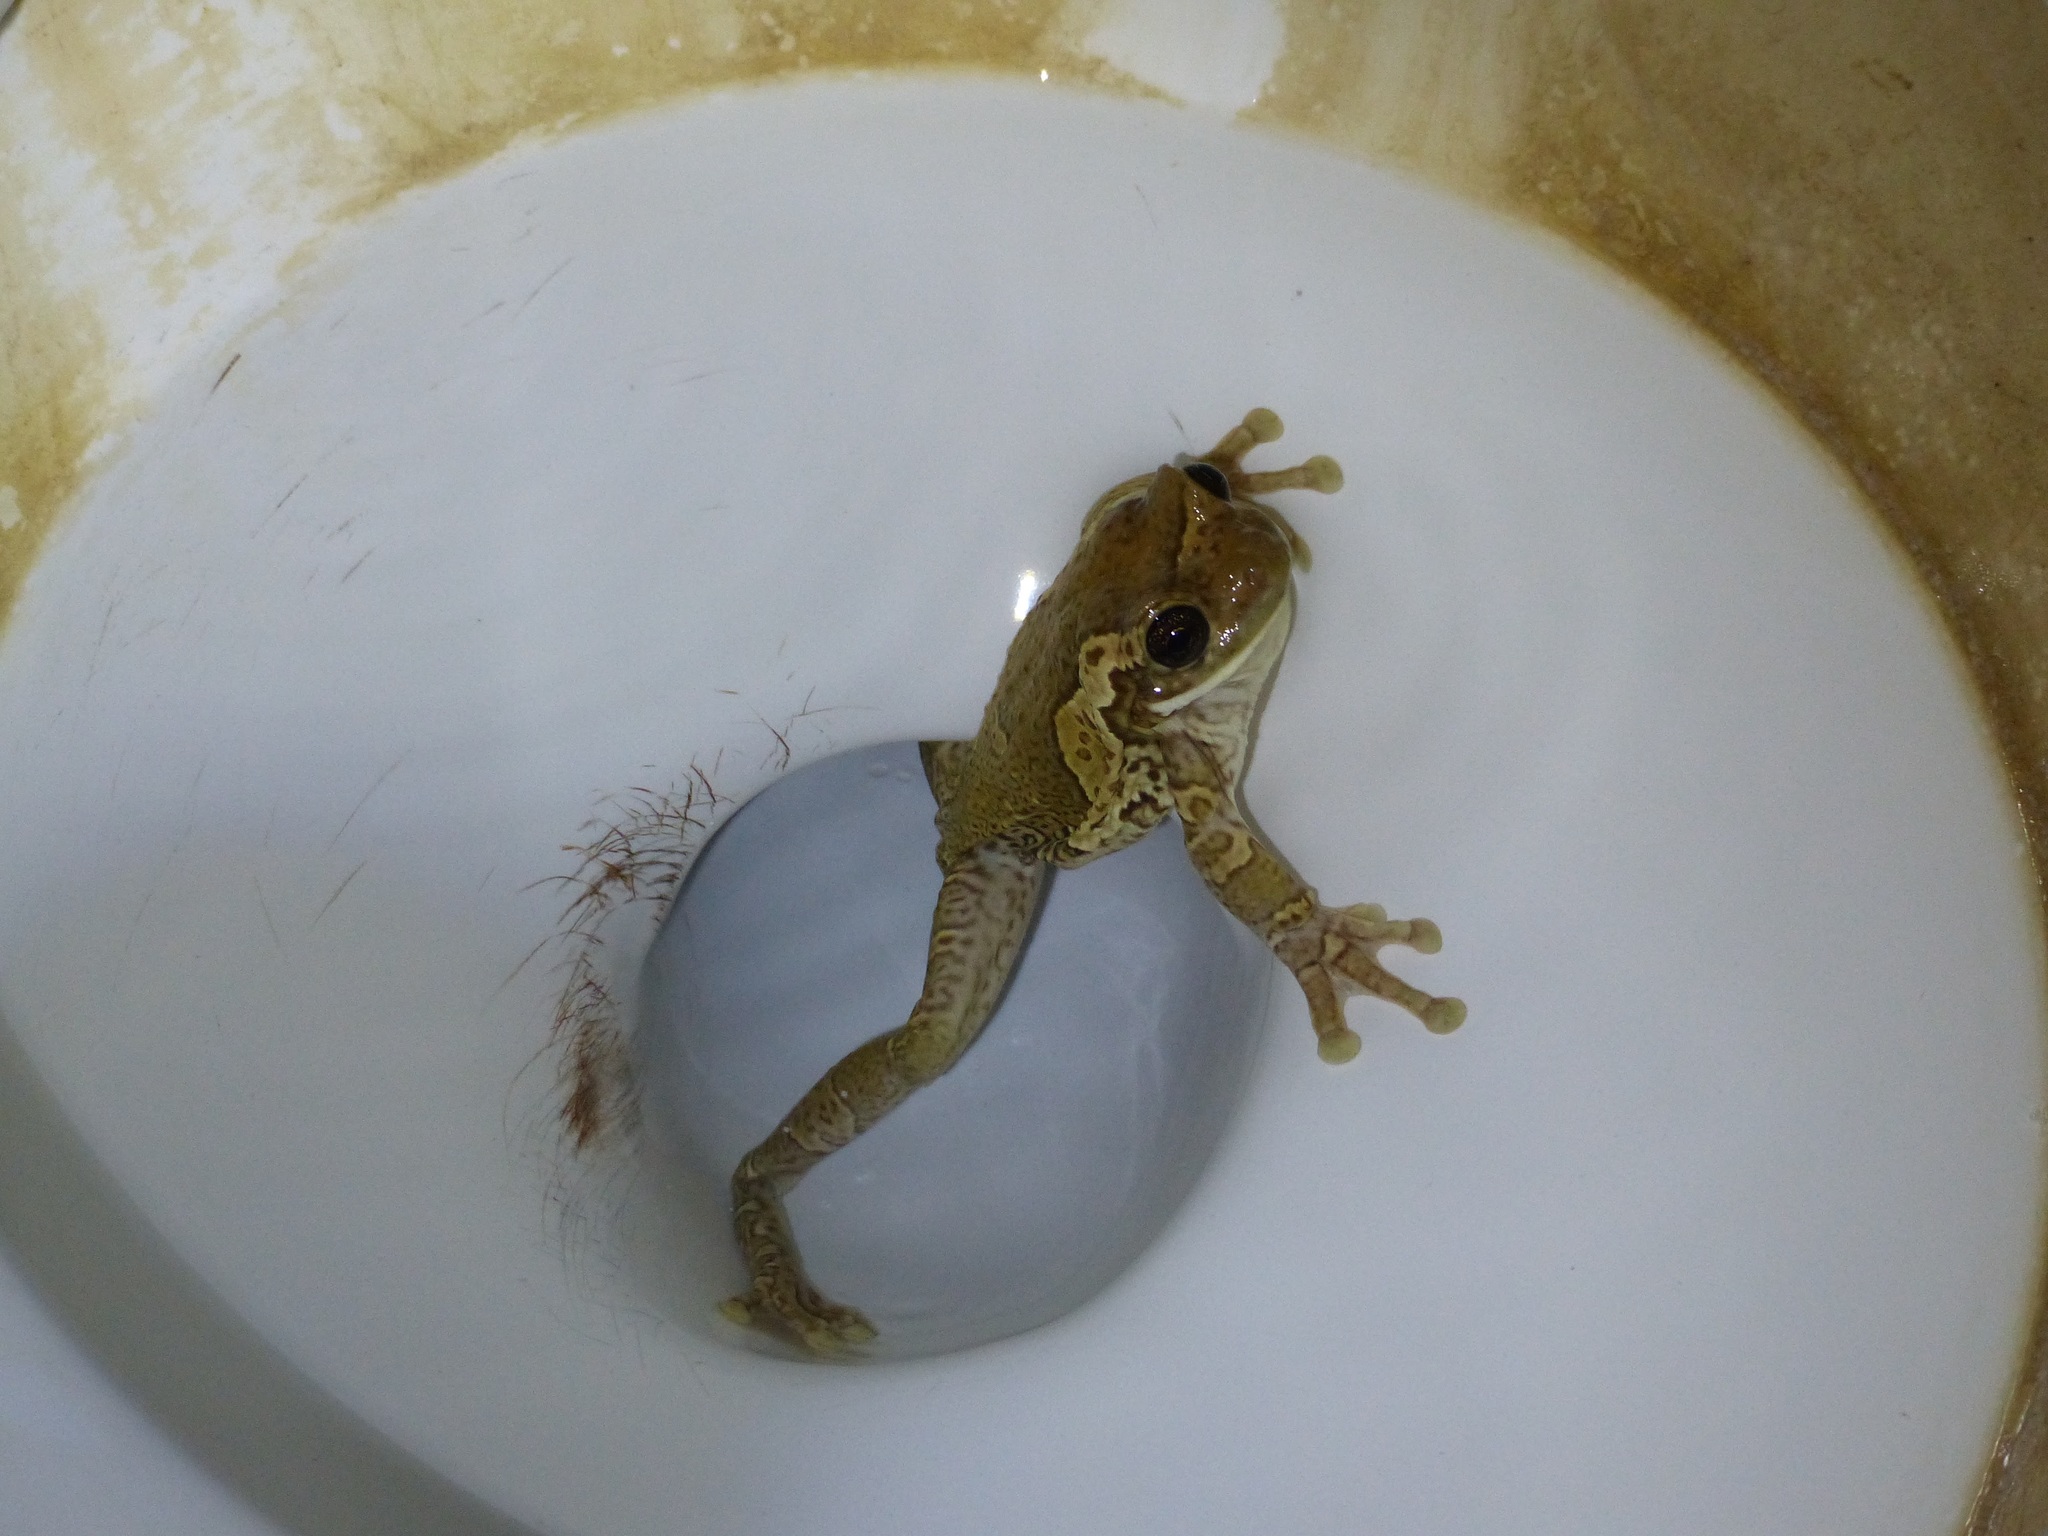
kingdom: Animalia
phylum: Chordata
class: Amphibia
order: Anura
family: Hylidae
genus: Trachycephalus
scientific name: Trachycephalus vermiculatus
